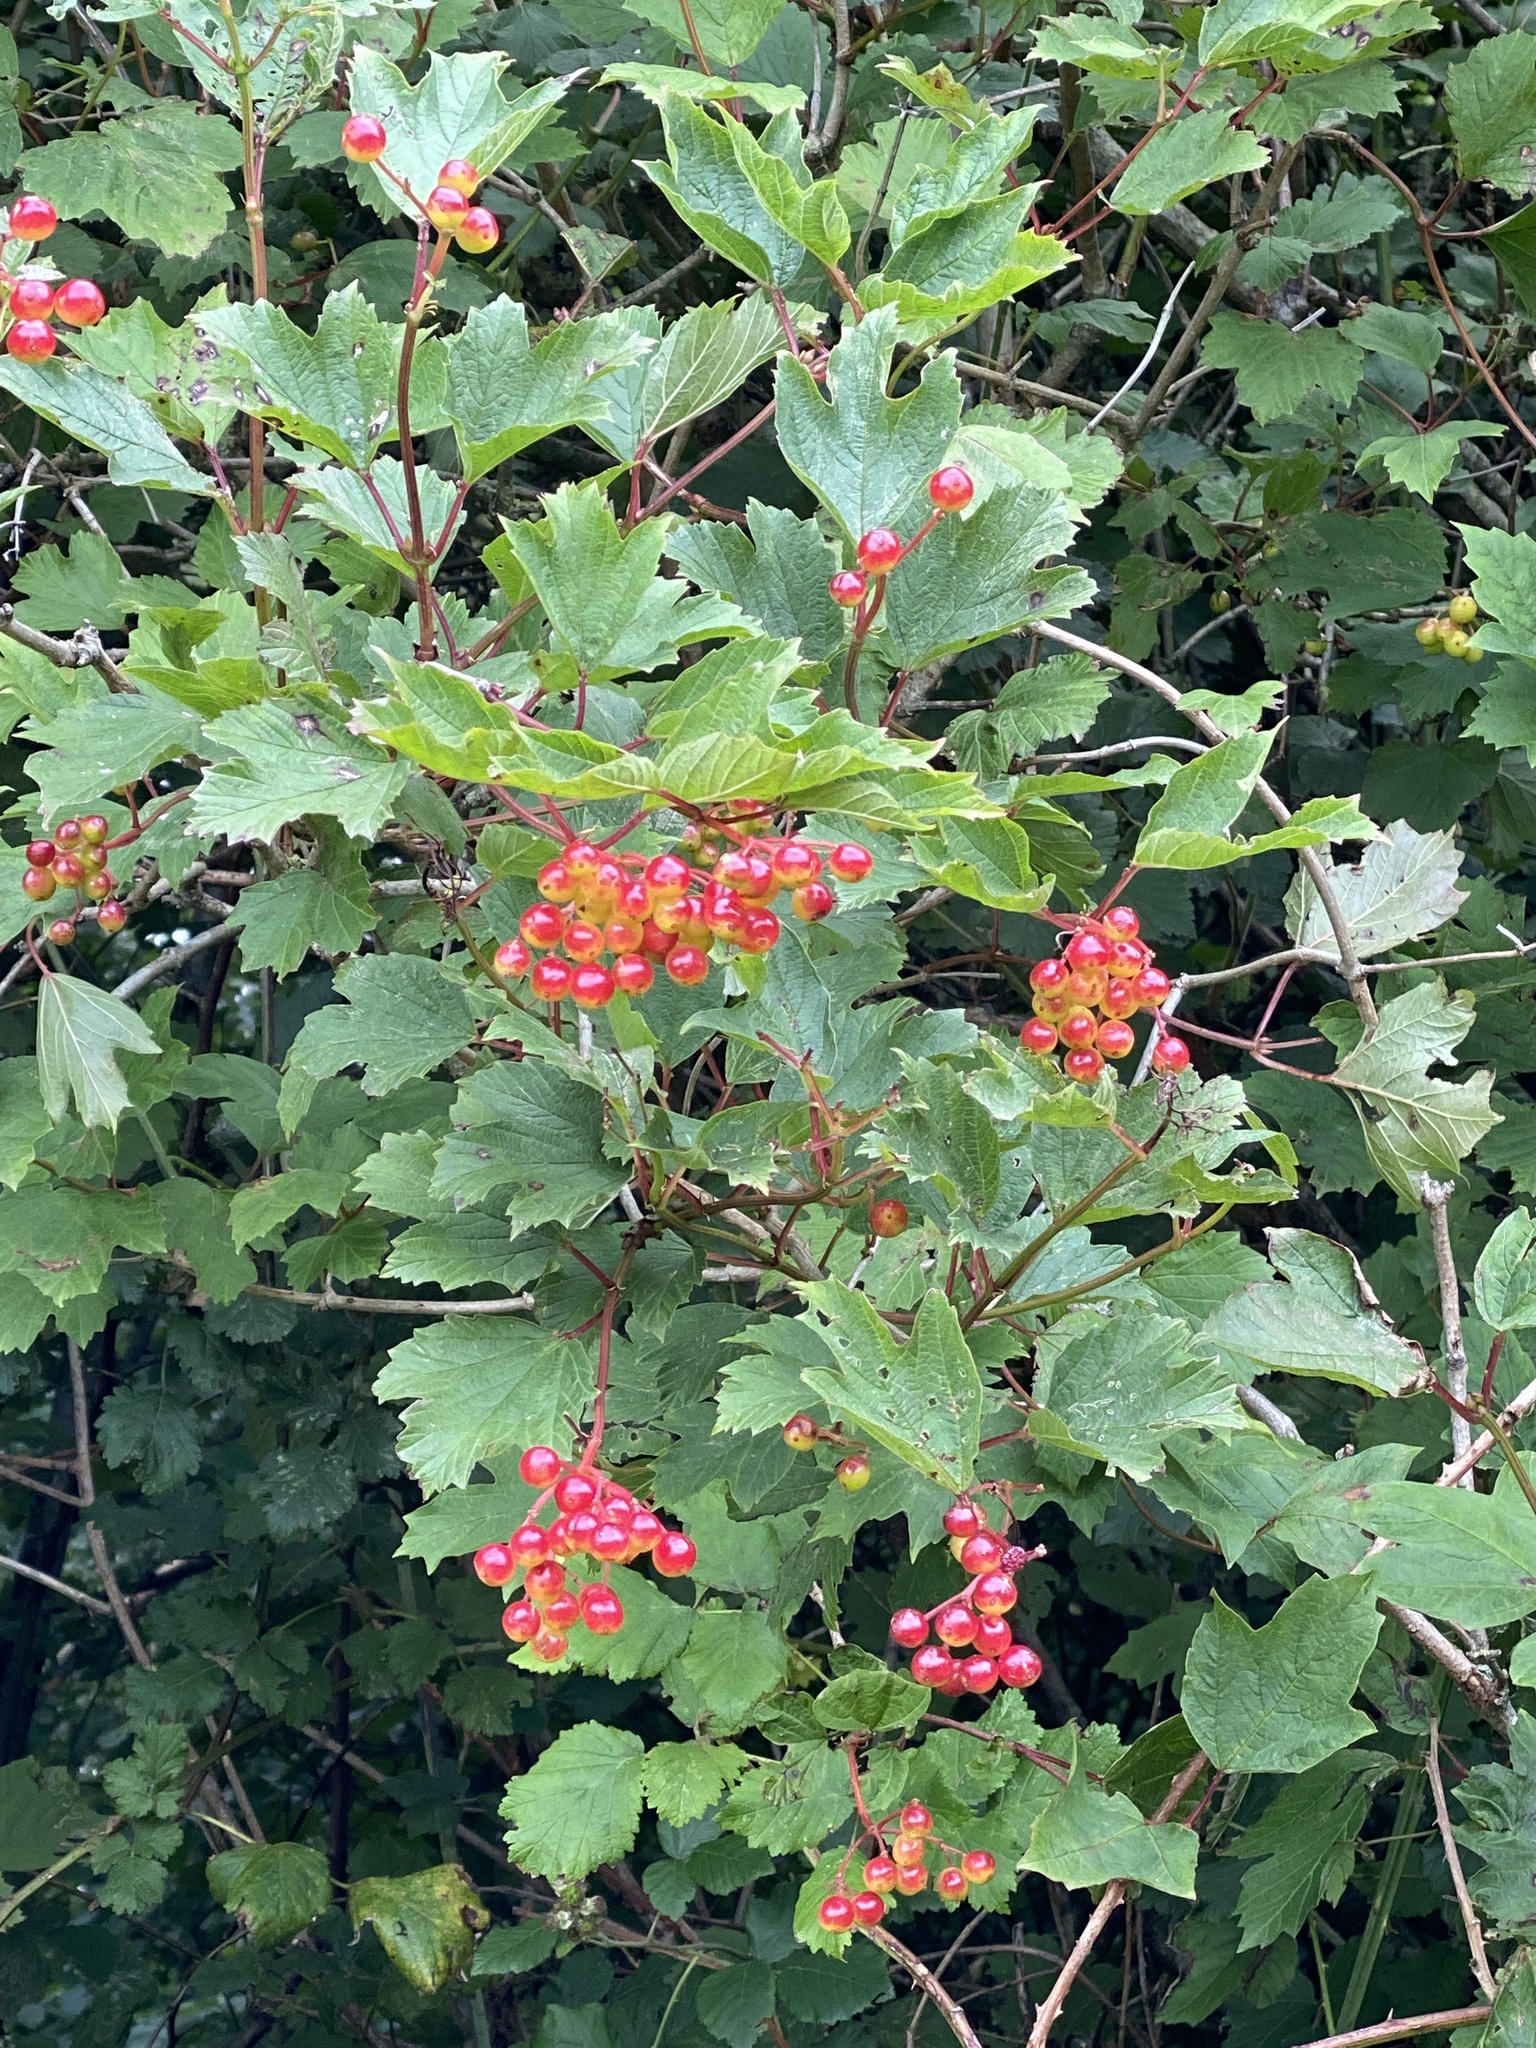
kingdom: Plantae
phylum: Tracheophyta
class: Magnoliopsida
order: Dipsacales
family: Viburnaceae
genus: Viburnum
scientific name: Viburnum opulus
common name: Guelder-rose
